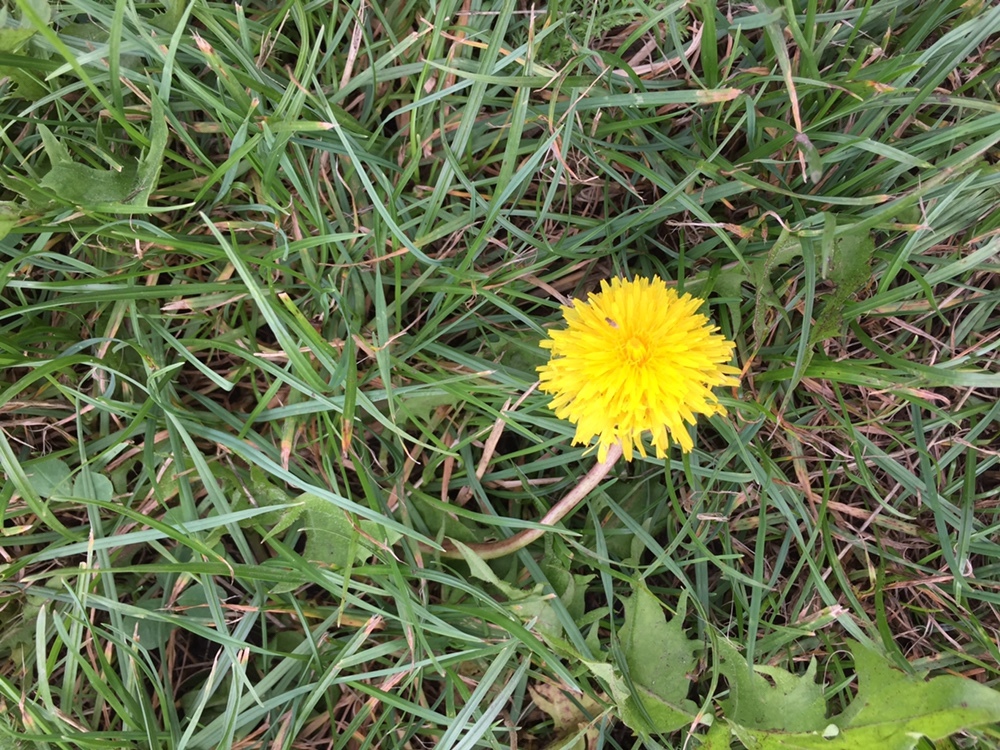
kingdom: Plantae
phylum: Tracheophyta
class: Magnoliopsida
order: Asterales
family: Asteraceae
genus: Taraxacum
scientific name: Taraxacum officinale
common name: Common dandelion
